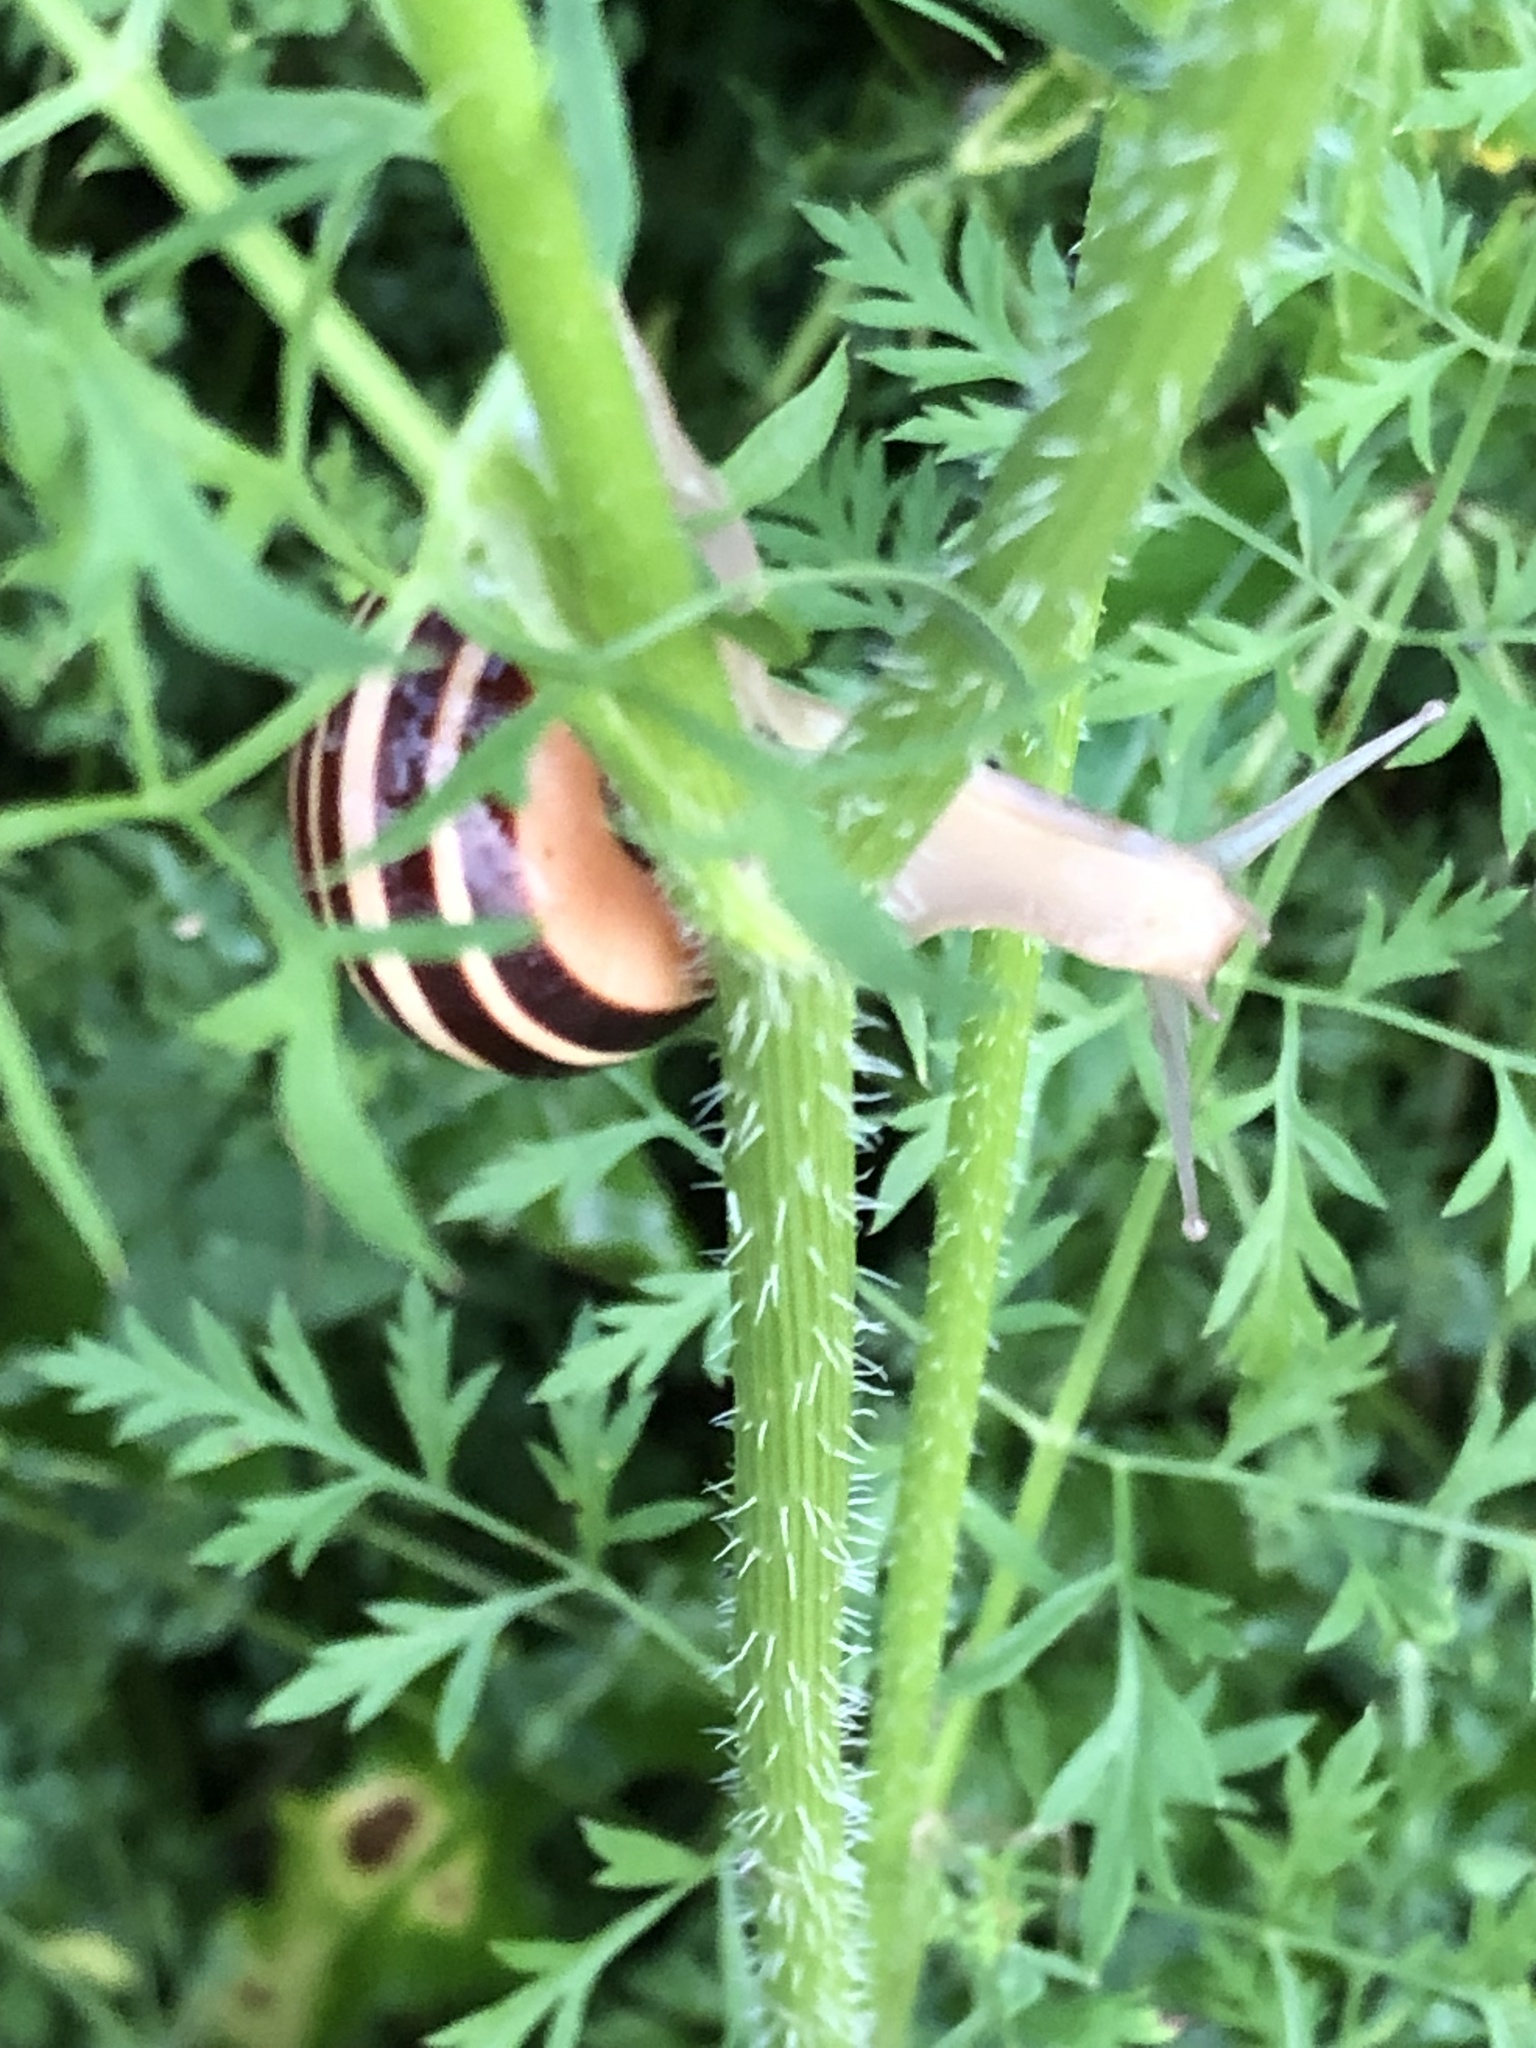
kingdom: Animalia
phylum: Mollusca
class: Gastropoda
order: Stylommatophora
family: Helicidae
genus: Cepaea
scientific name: Cepaea nemoralis
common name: Grovesnail
